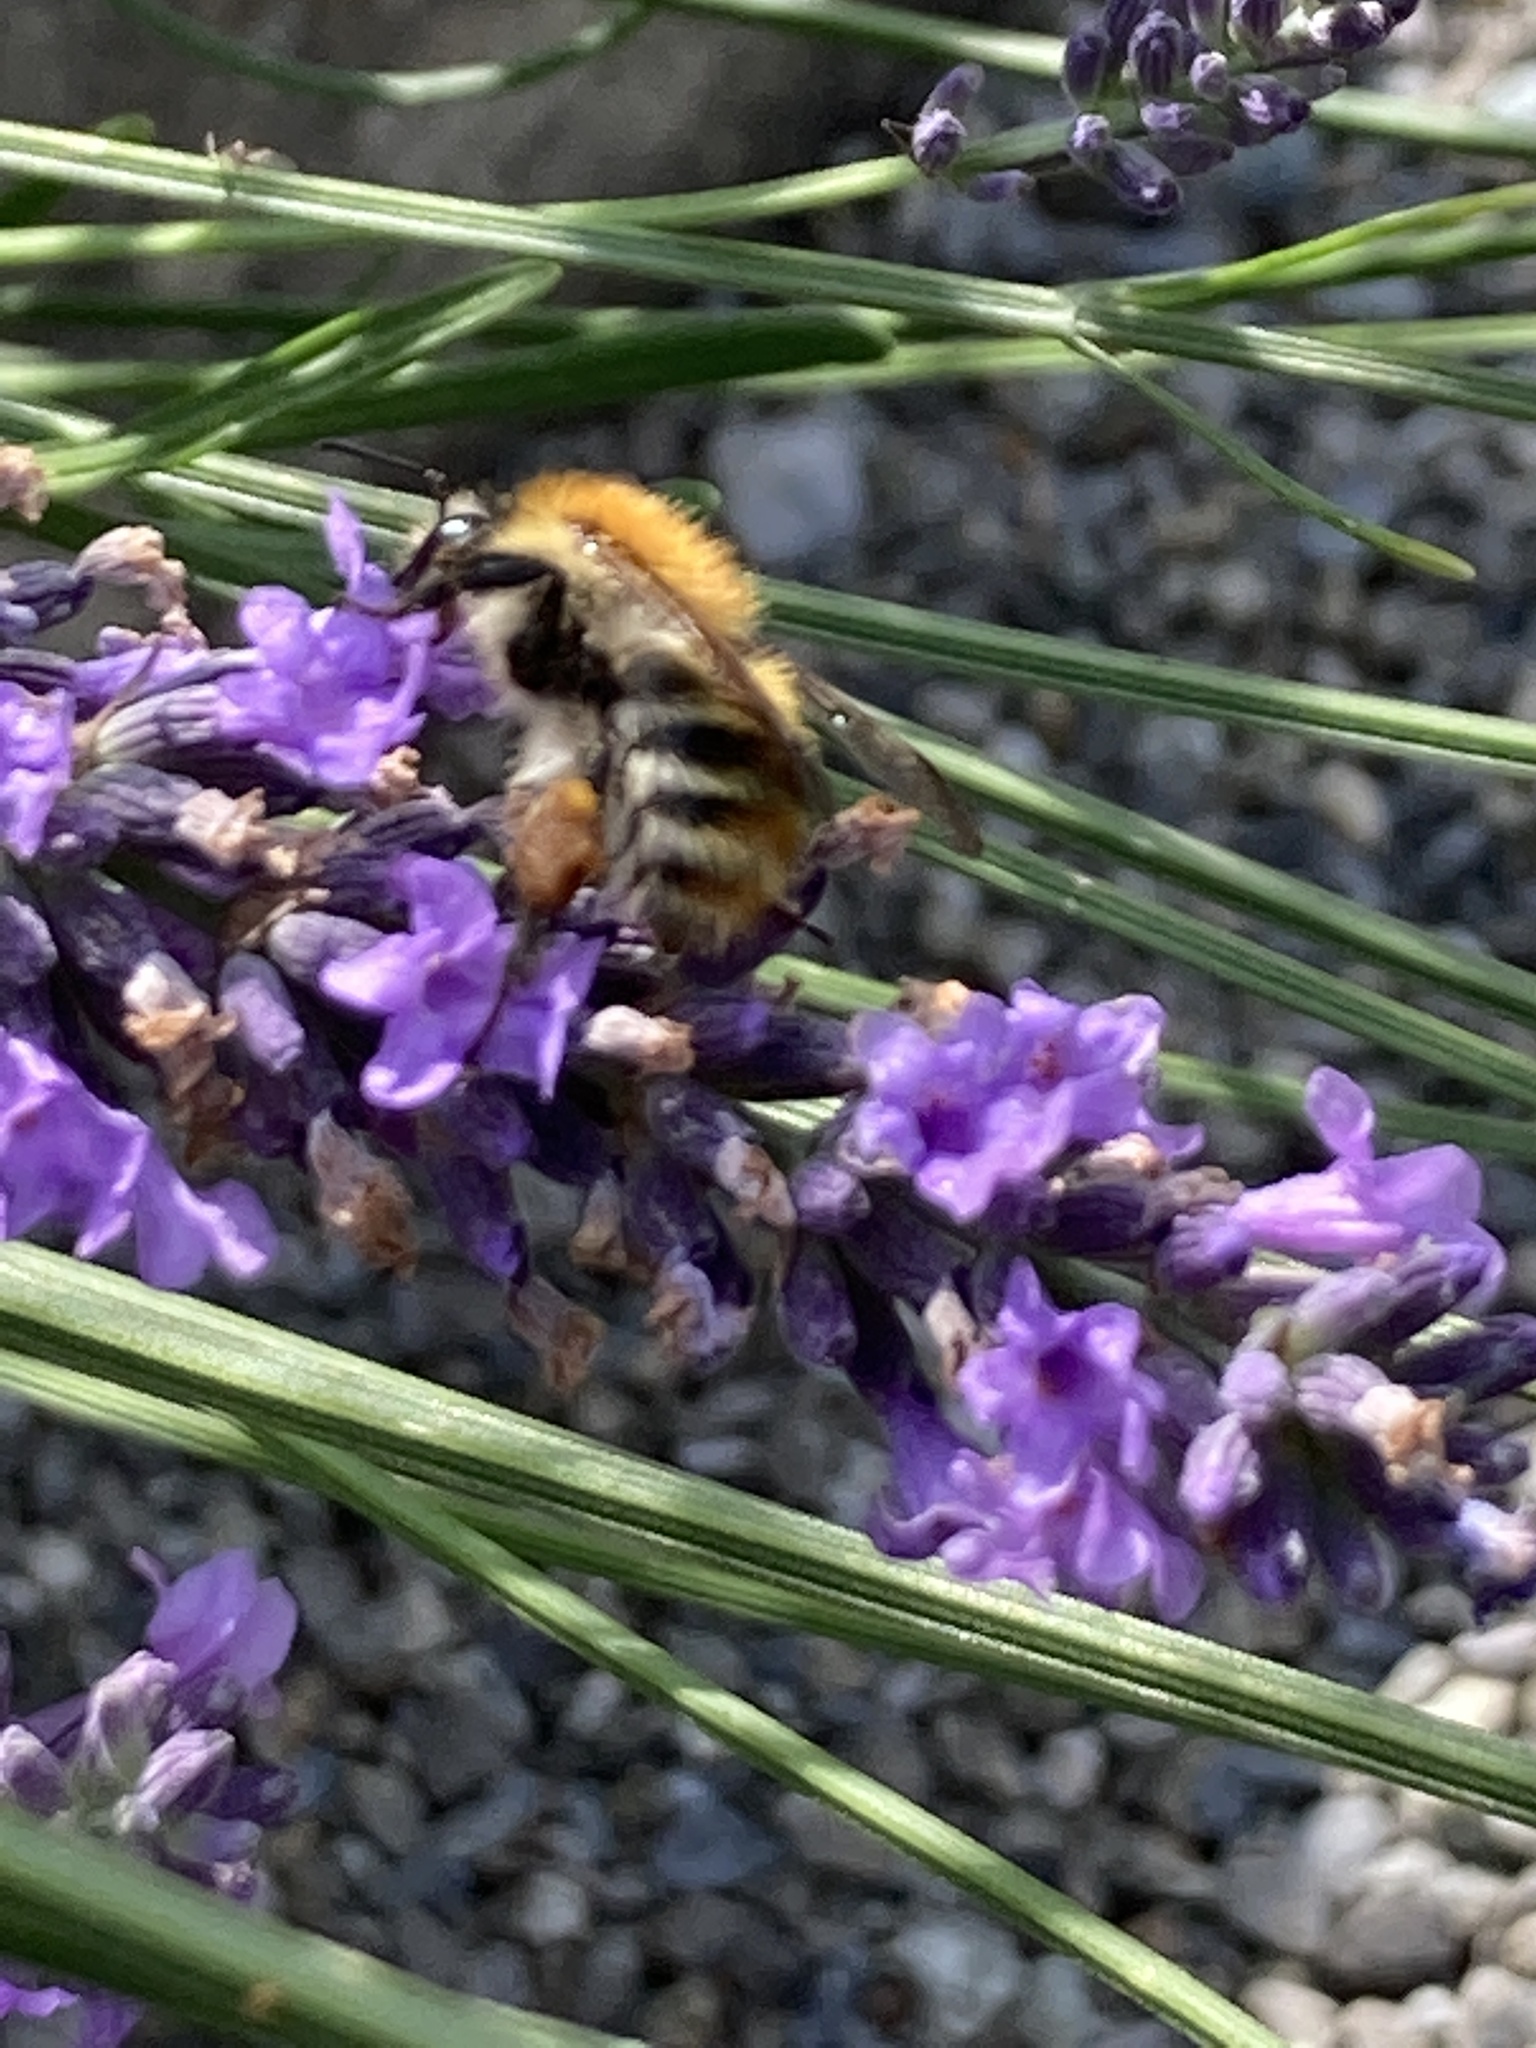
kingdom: Animalia
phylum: Arthropoda
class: Insecta
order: Hymenoptera
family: Apidae
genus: Bombus
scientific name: Bombus pascuorum
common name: Common carder bee
